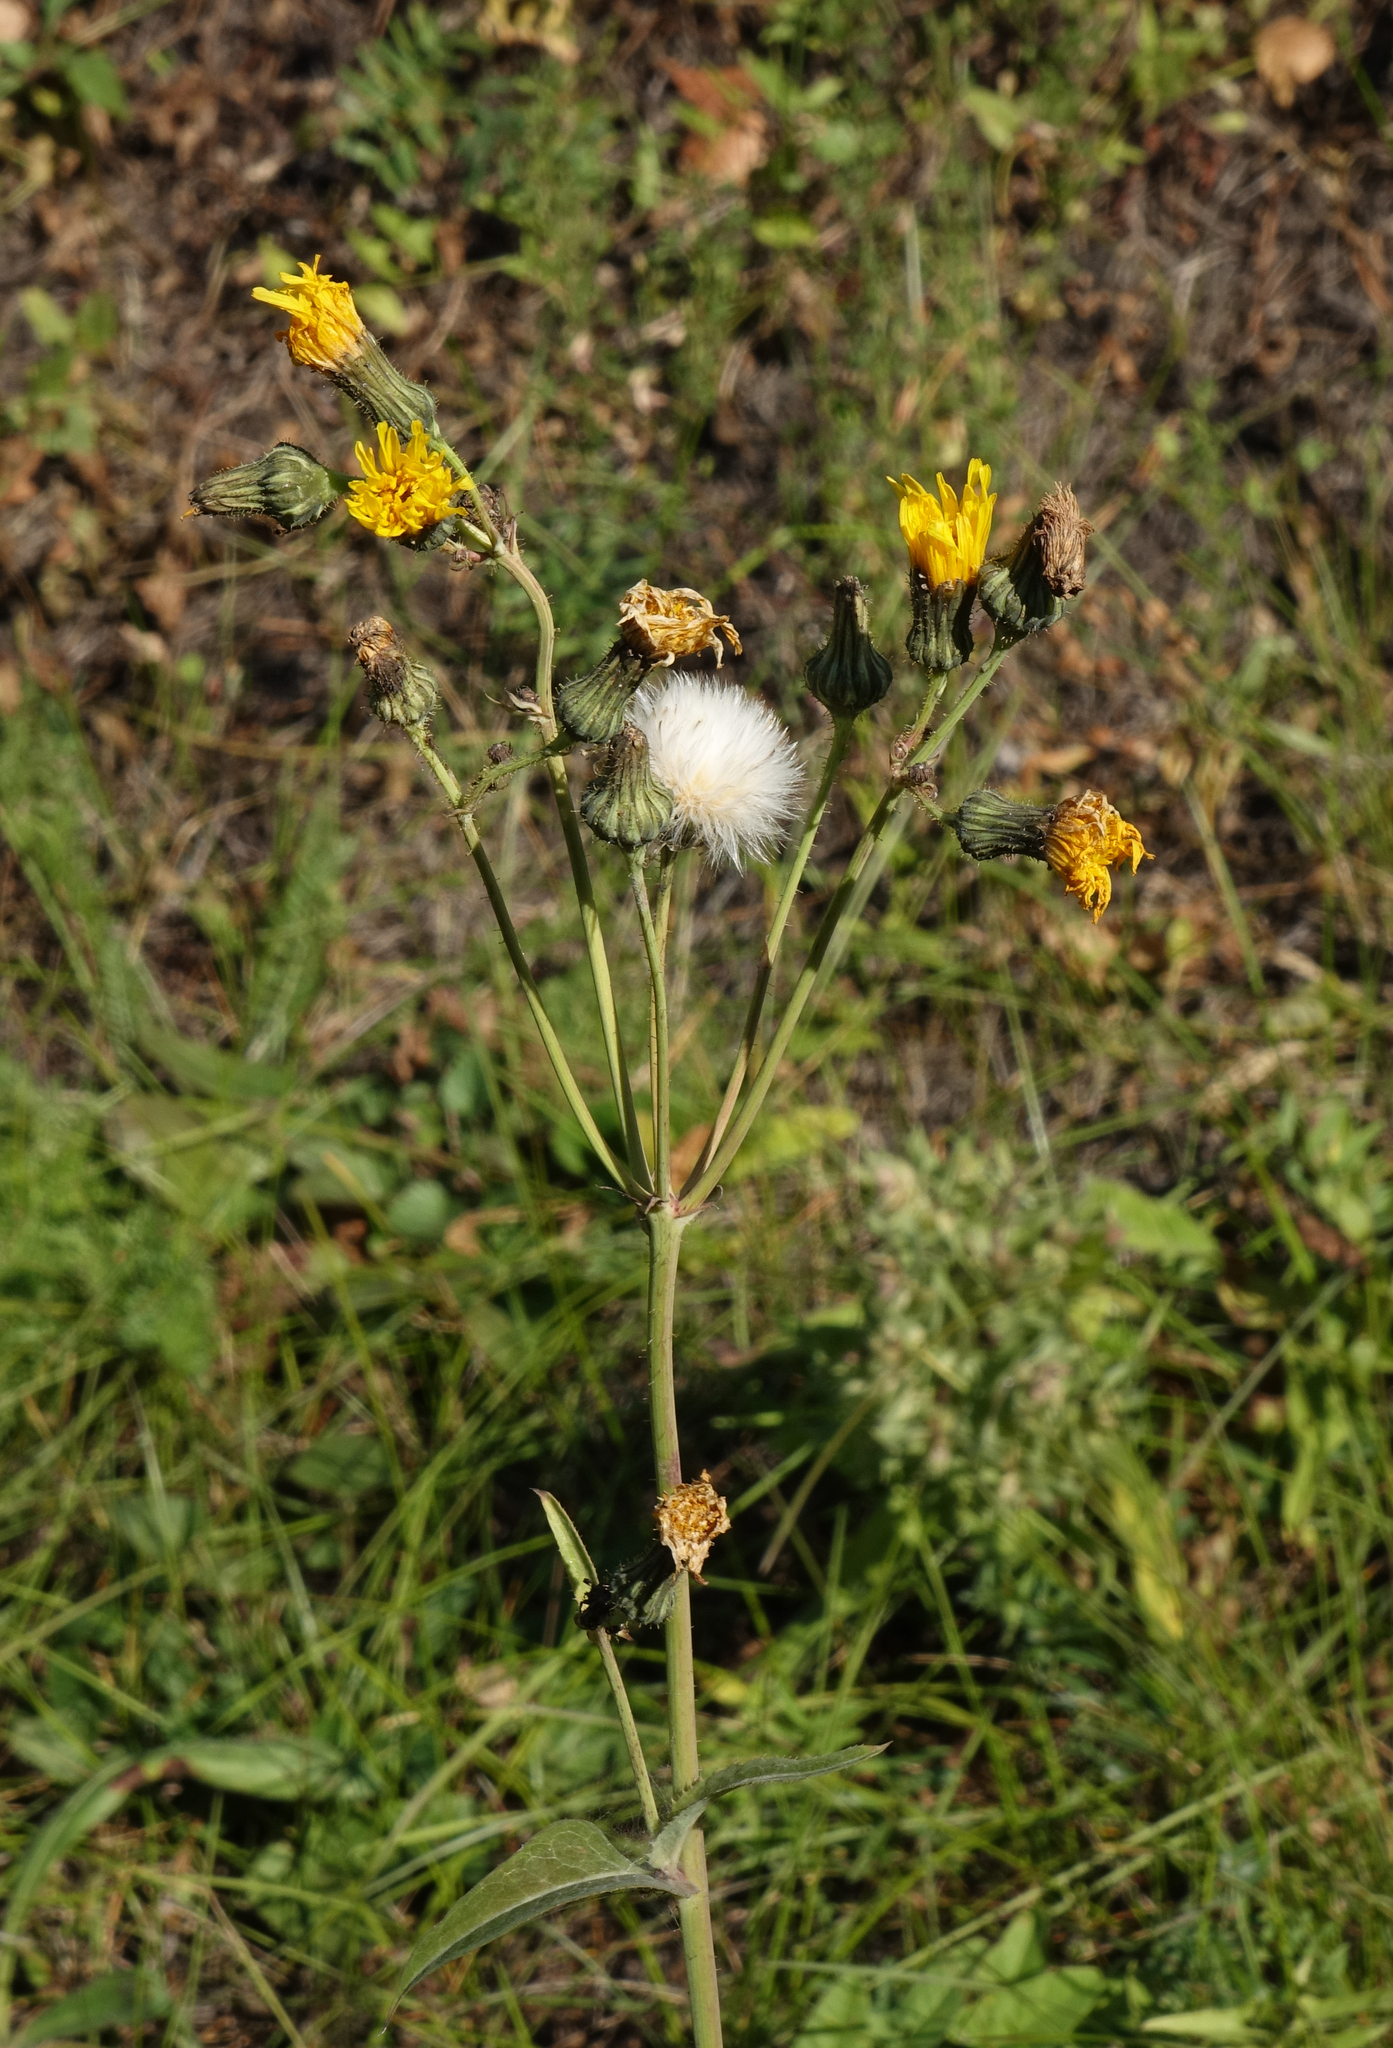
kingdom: Plantae
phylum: Tracheophyta
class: Magnoliopsida
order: Asterales
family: Asteraceae
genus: Sonchus
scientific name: Sonchus arvensis
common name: Perennial sow-thistle
